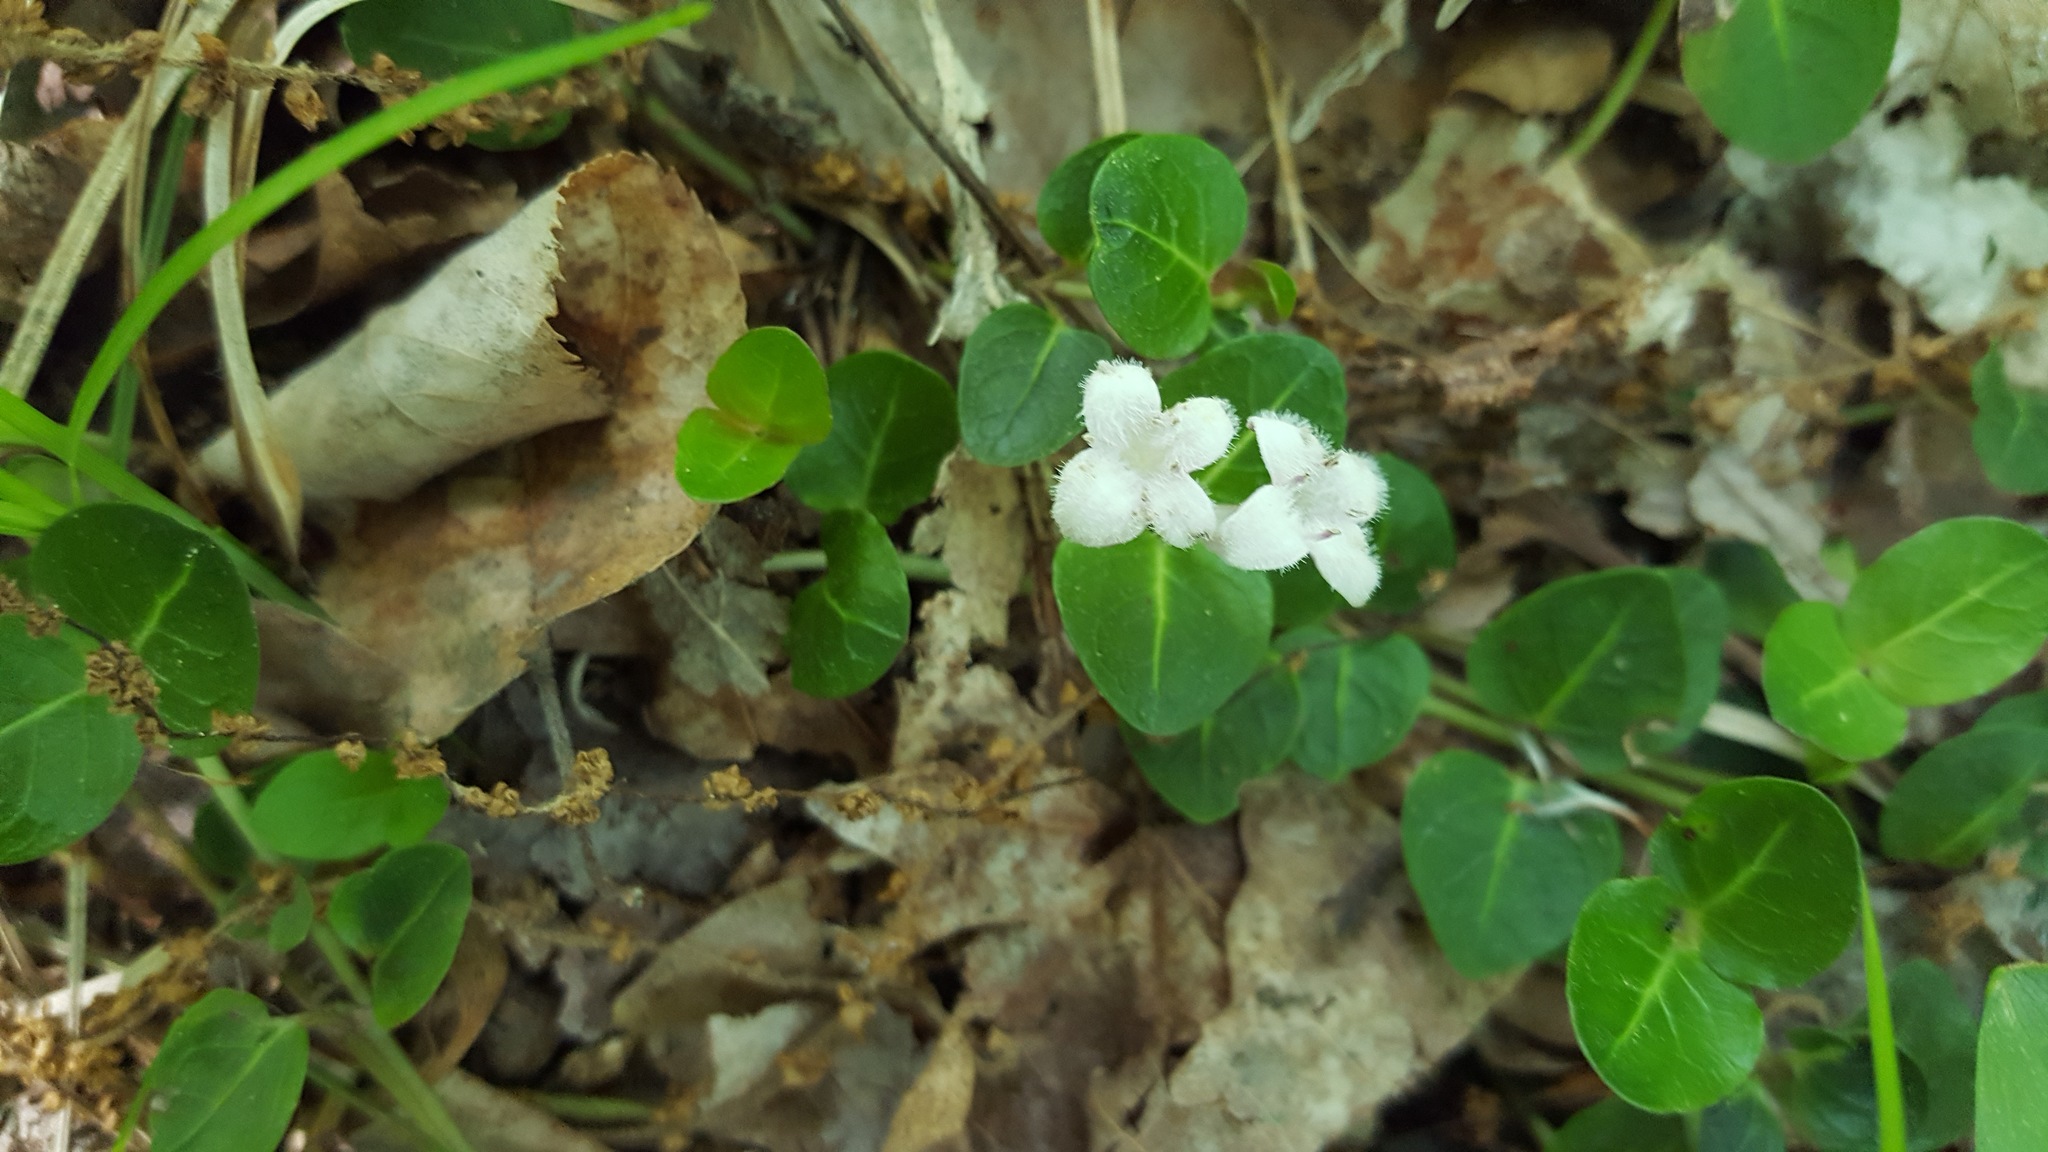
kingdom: Plantae
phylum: Tracheophyta
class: Magnoliopsida
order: Gentianales
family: Rubiaceae
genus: Mitchella
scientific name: Mitchella repens
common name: Partridge-berry
